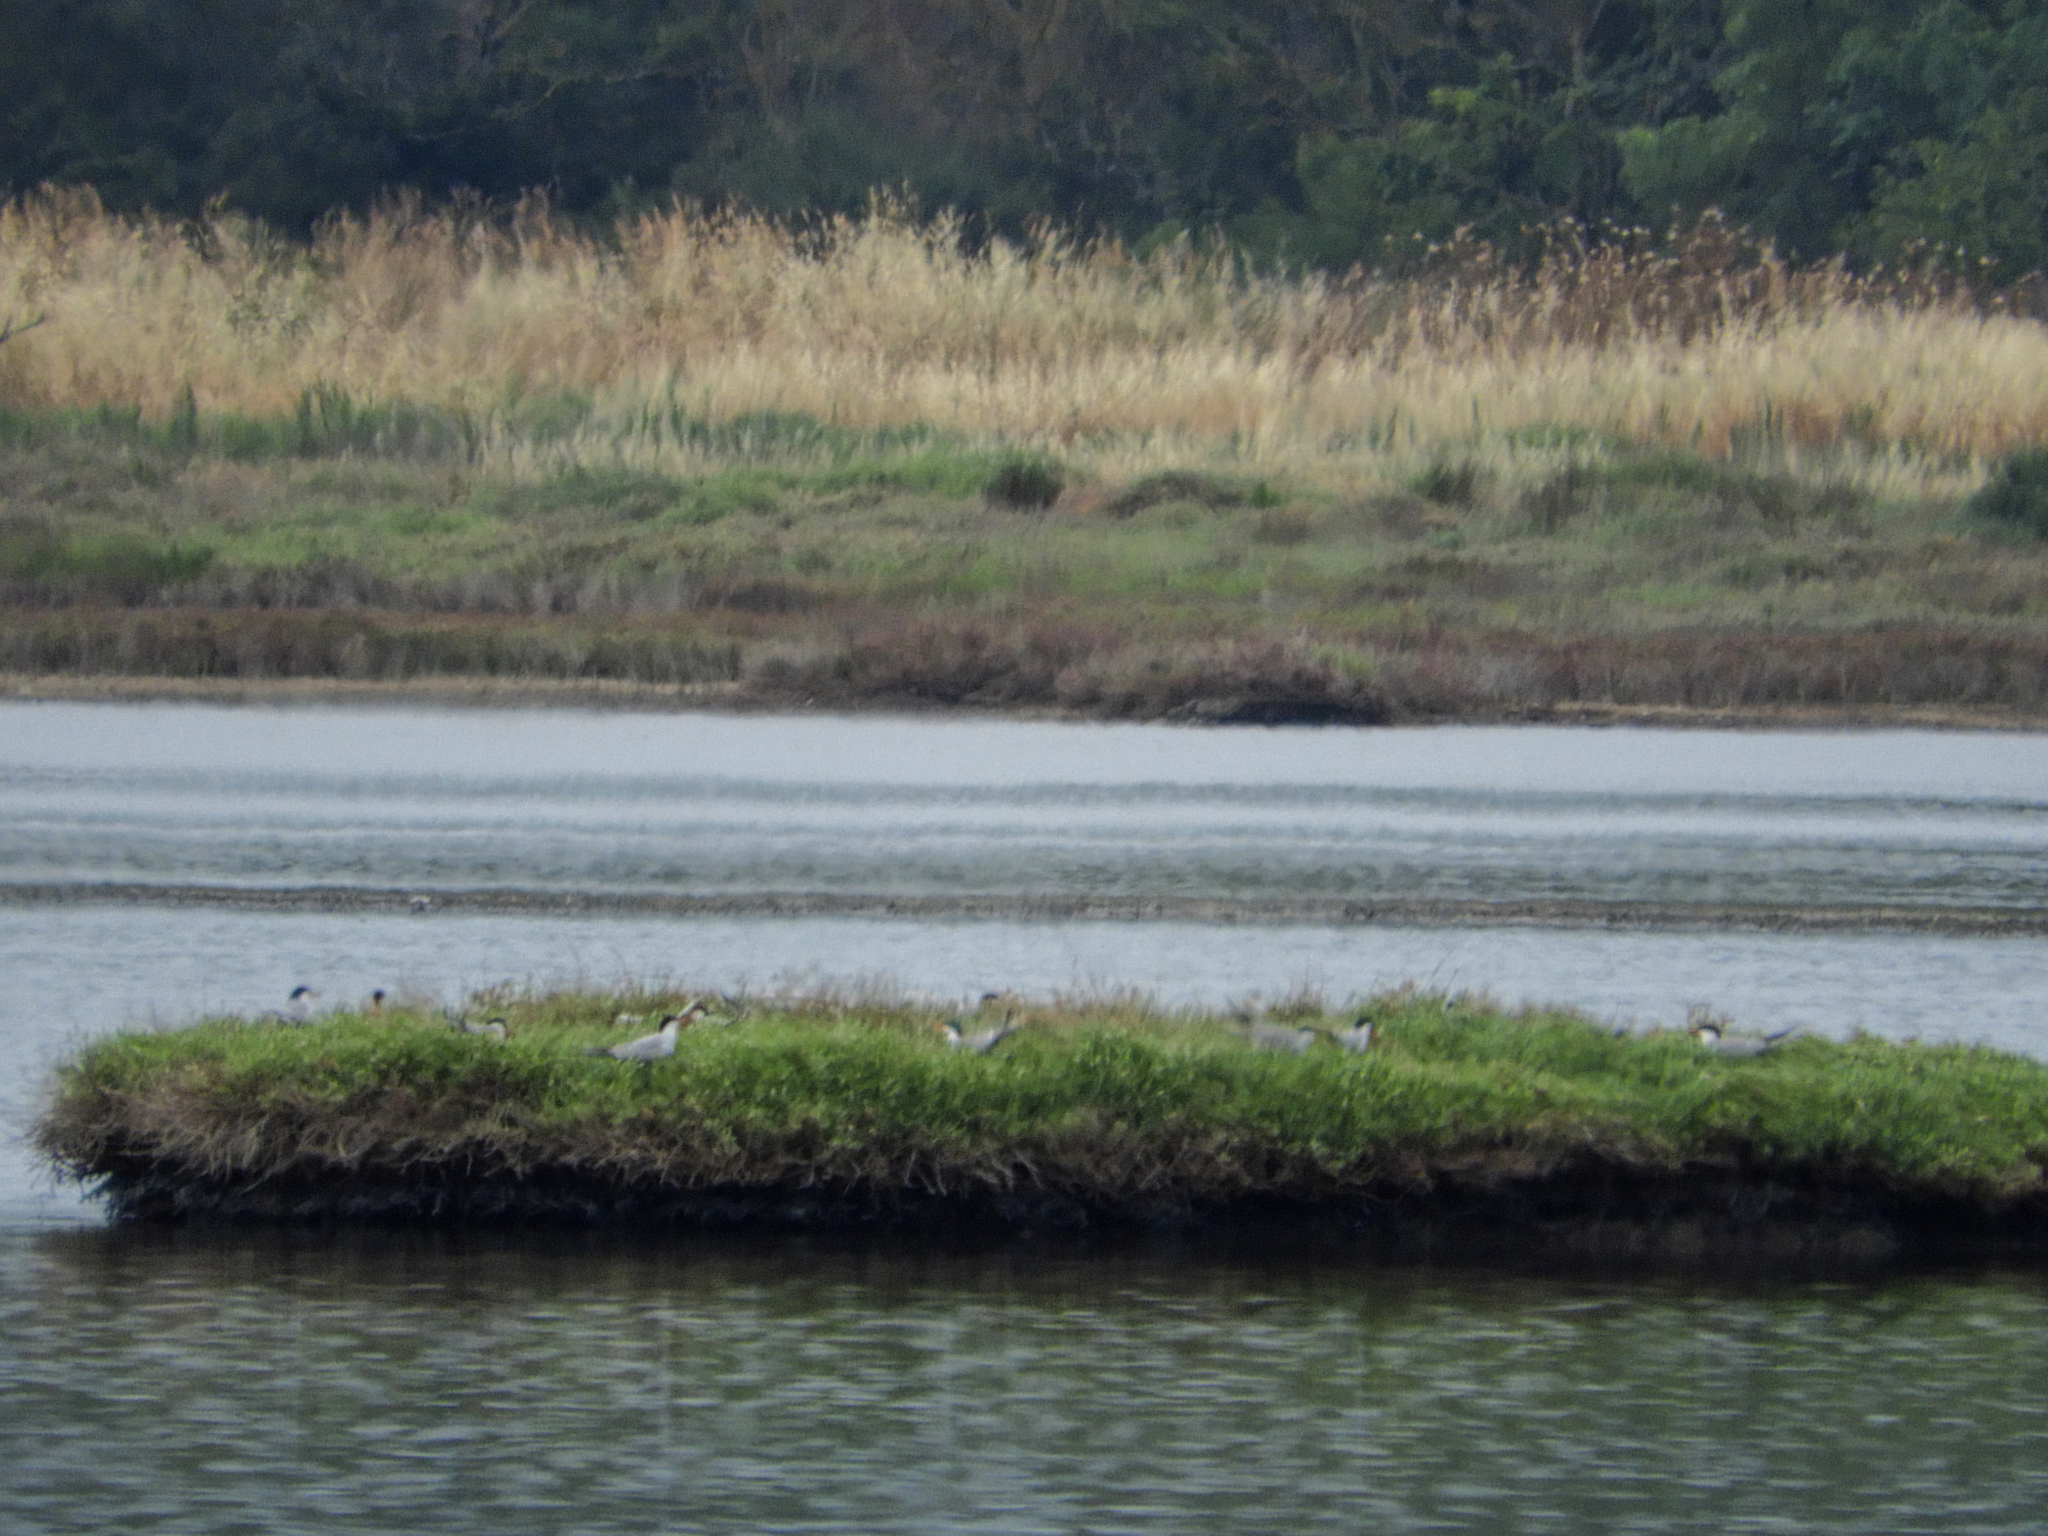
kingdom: Animalia
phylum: Chordata
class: Aves
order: Charadriiformes
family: Laridae
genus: Sterna
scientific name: Sterna hirundo
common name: Common tern
